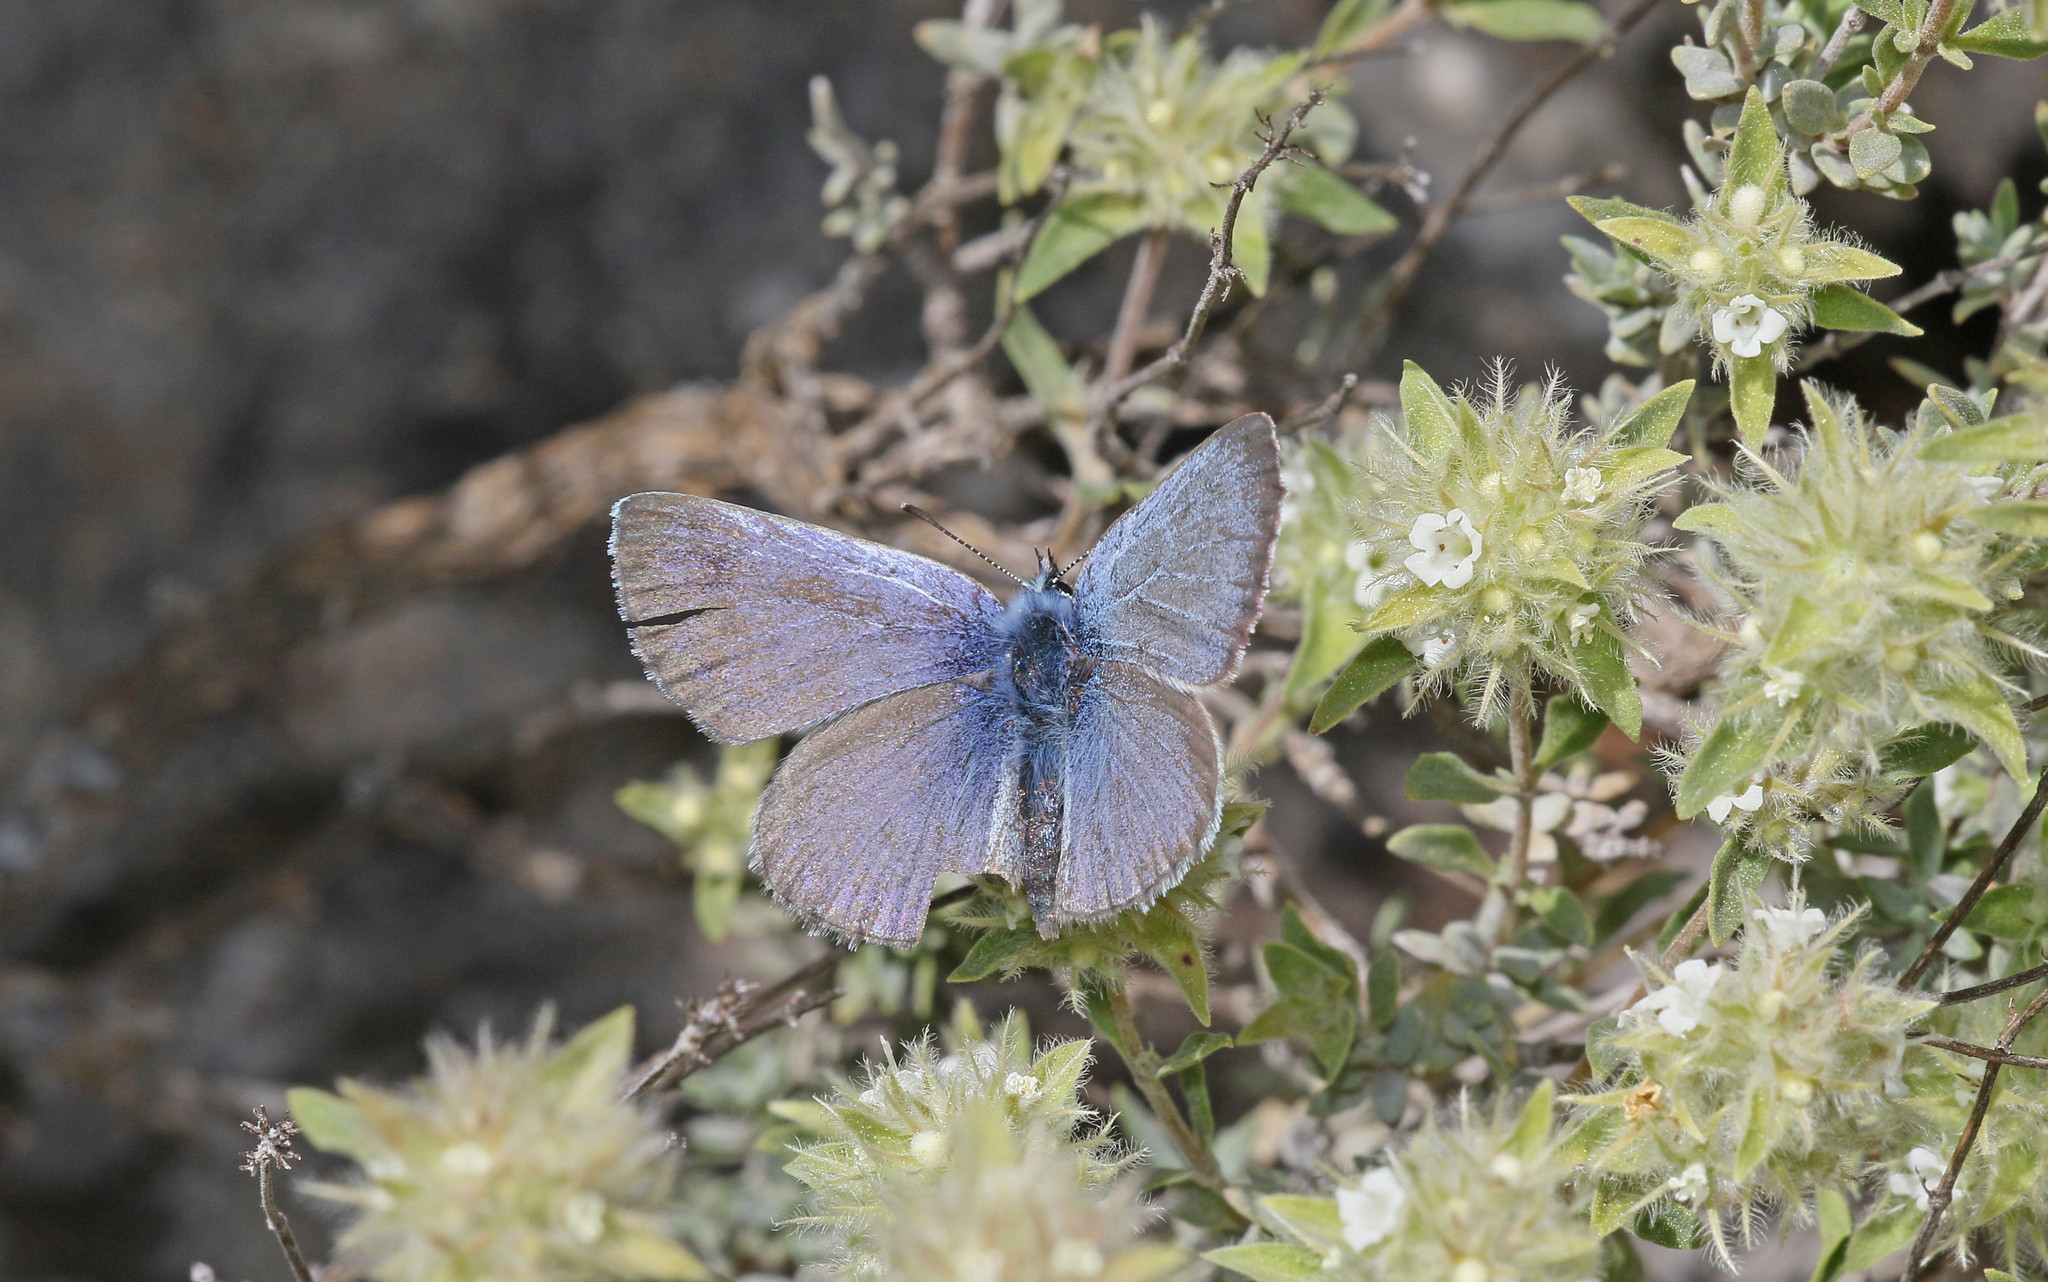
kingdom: Animalia
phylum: Arthropoda
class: Insecta
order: Lepidoptera
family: Lycaenidae
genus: Glaucopsyche
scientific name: Glaucopsyche melanops
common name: Black-eyed blue
